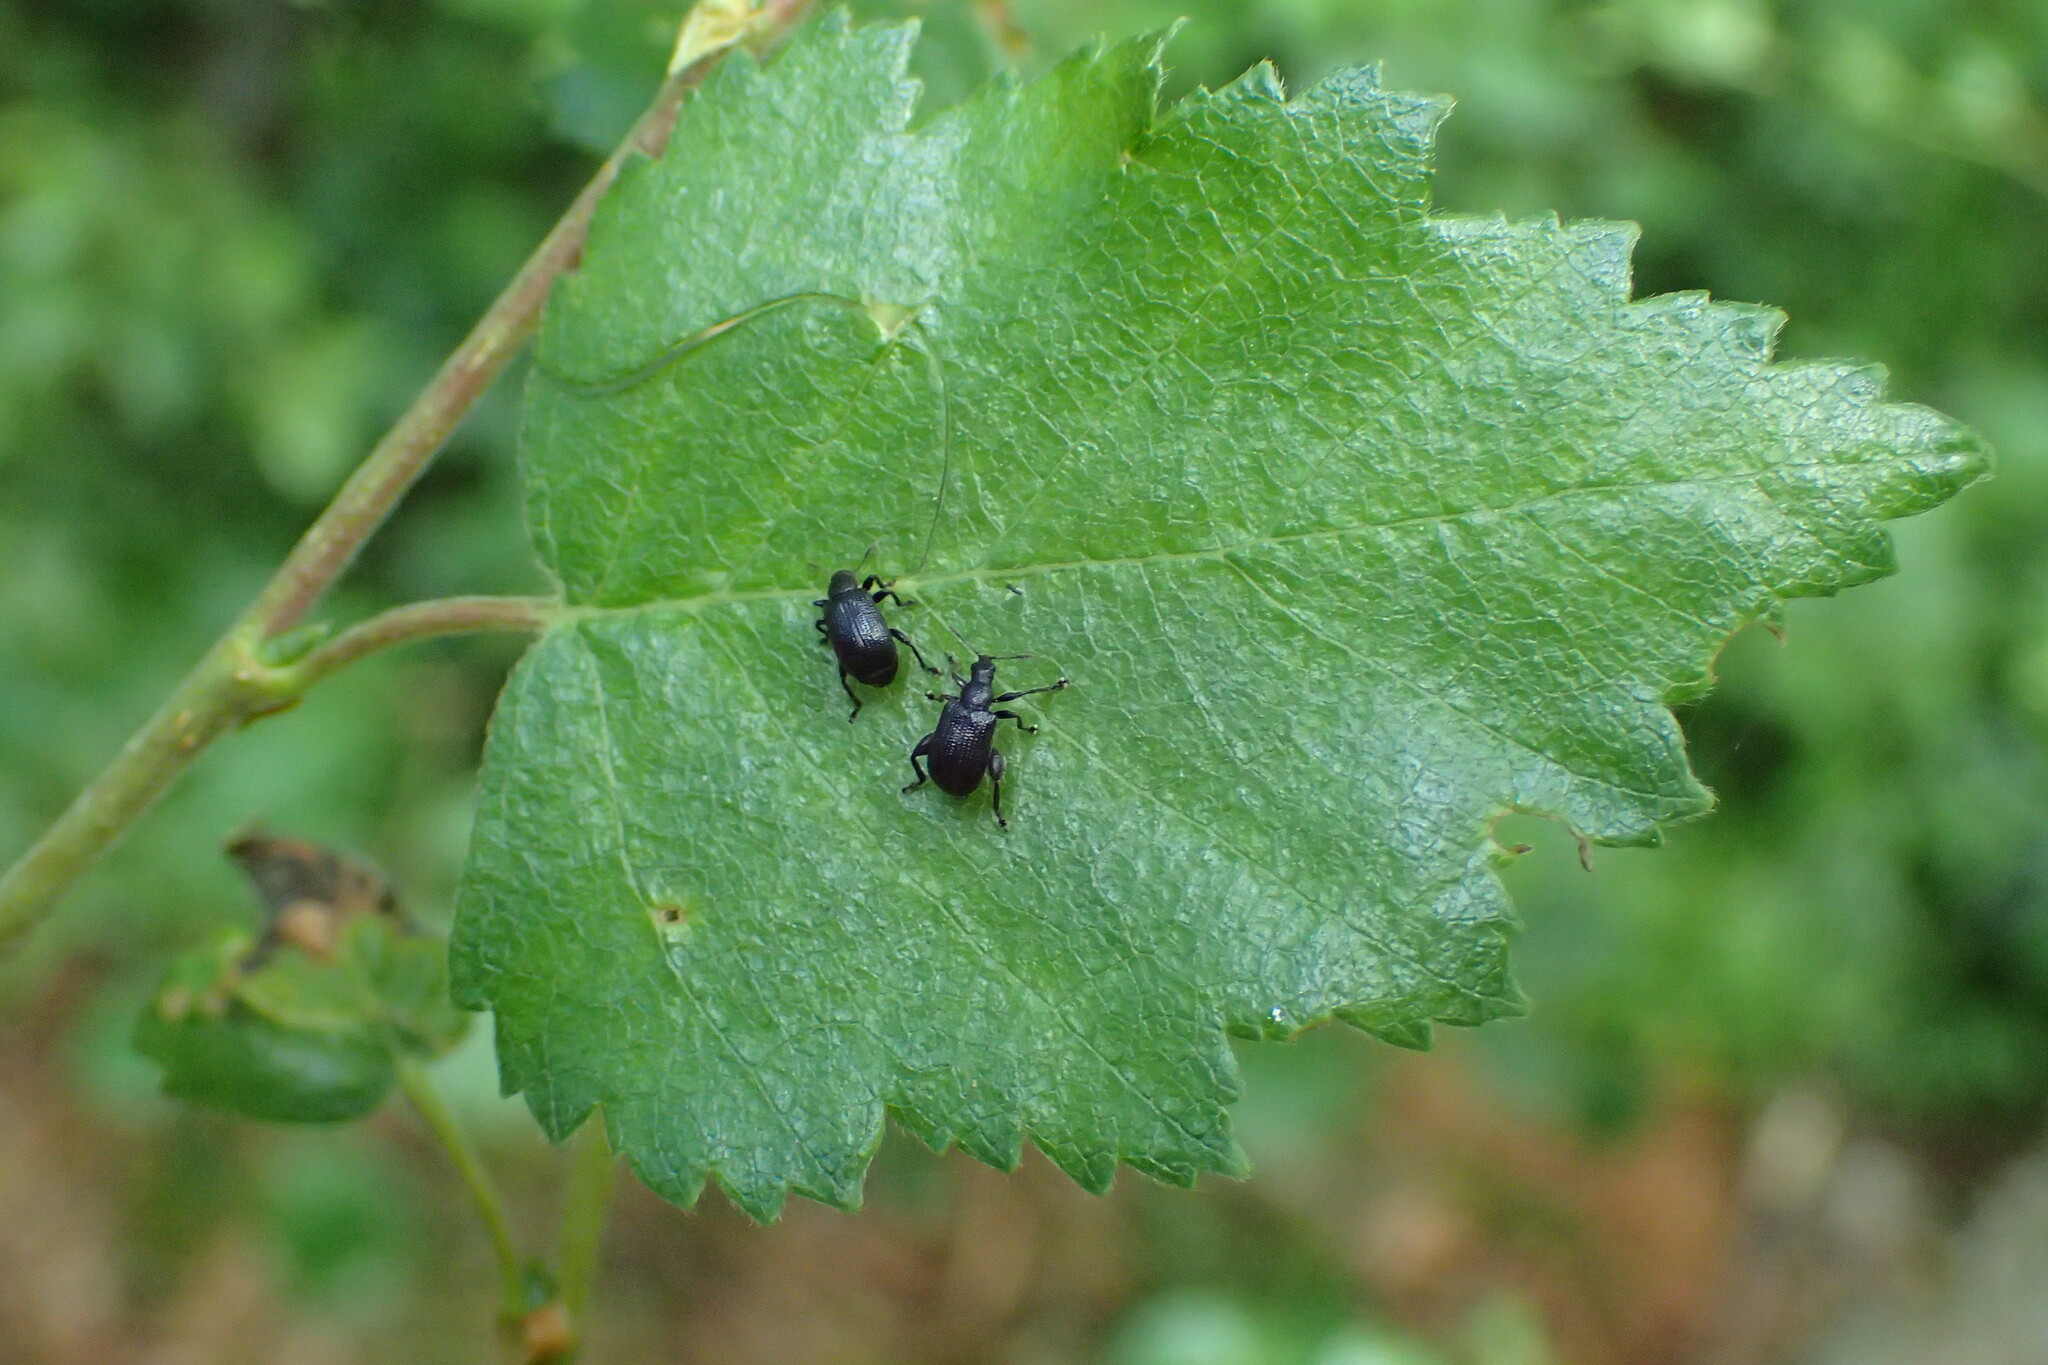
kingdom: Animalia
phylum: Arthropoda
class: Insecta
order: Coleoptera
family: Attelabidae
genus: Deporaus
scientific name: Deporaus betulae
